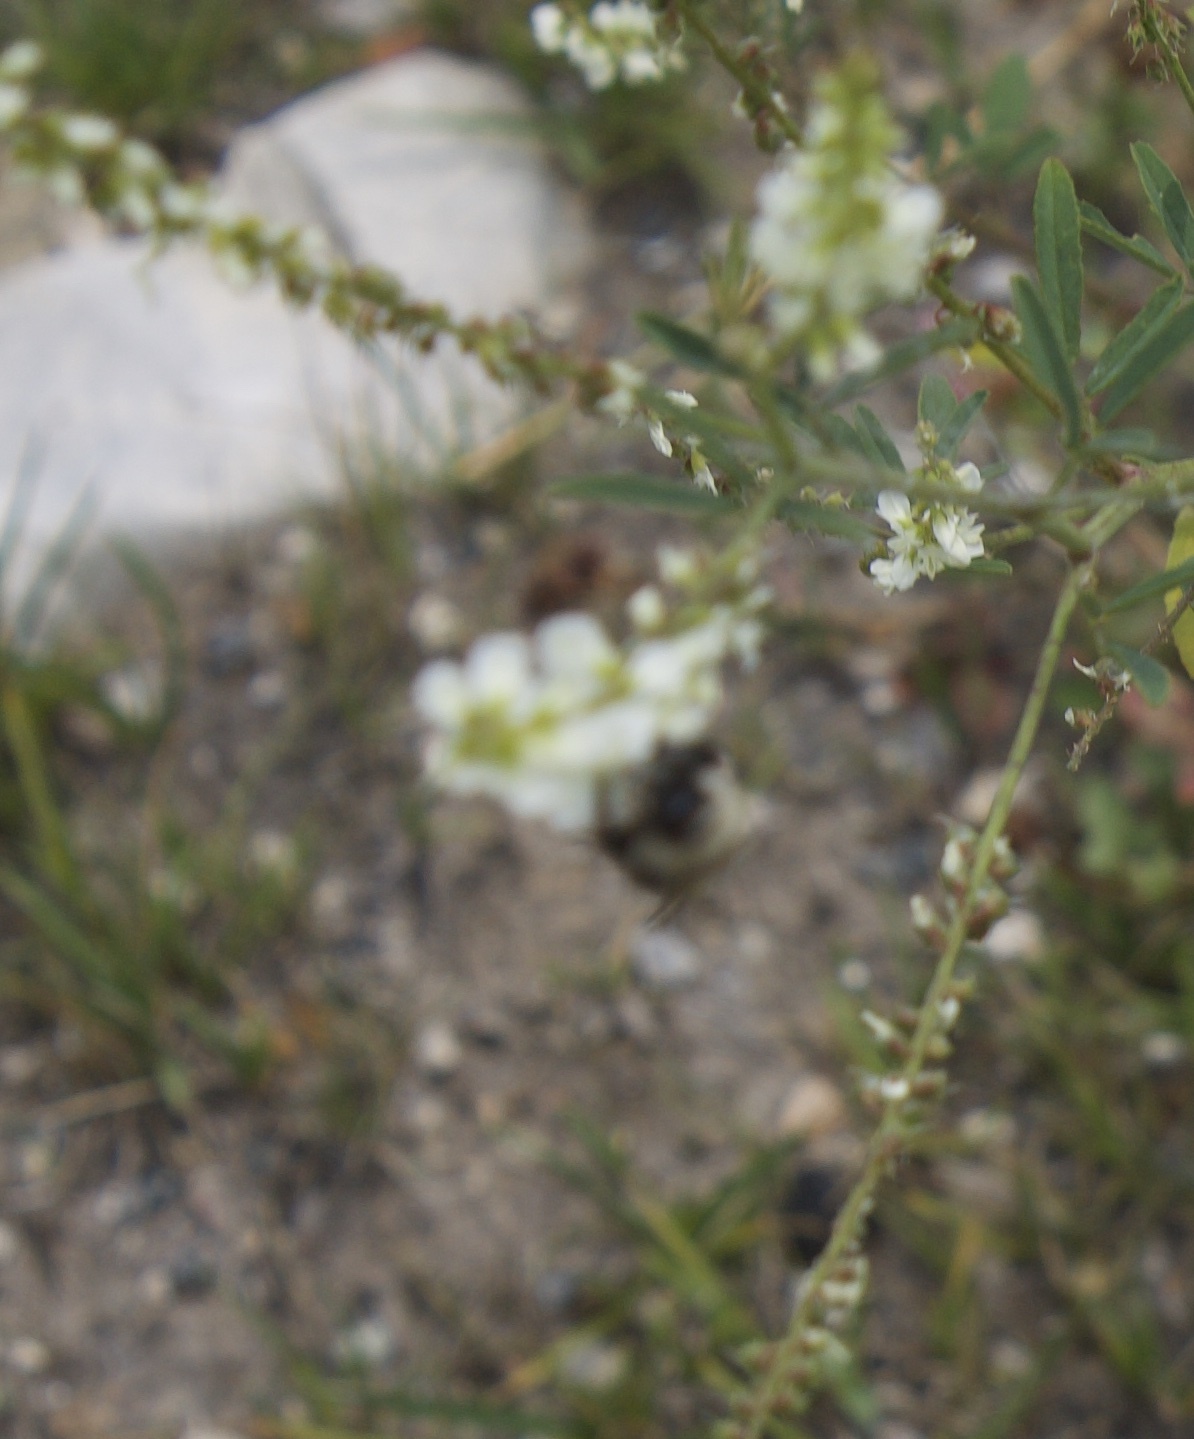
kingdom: Animalia
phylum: Arthropoda
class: Insecta
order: Hymenoptera
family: Apidae
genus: Bombus
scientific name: Bombus
